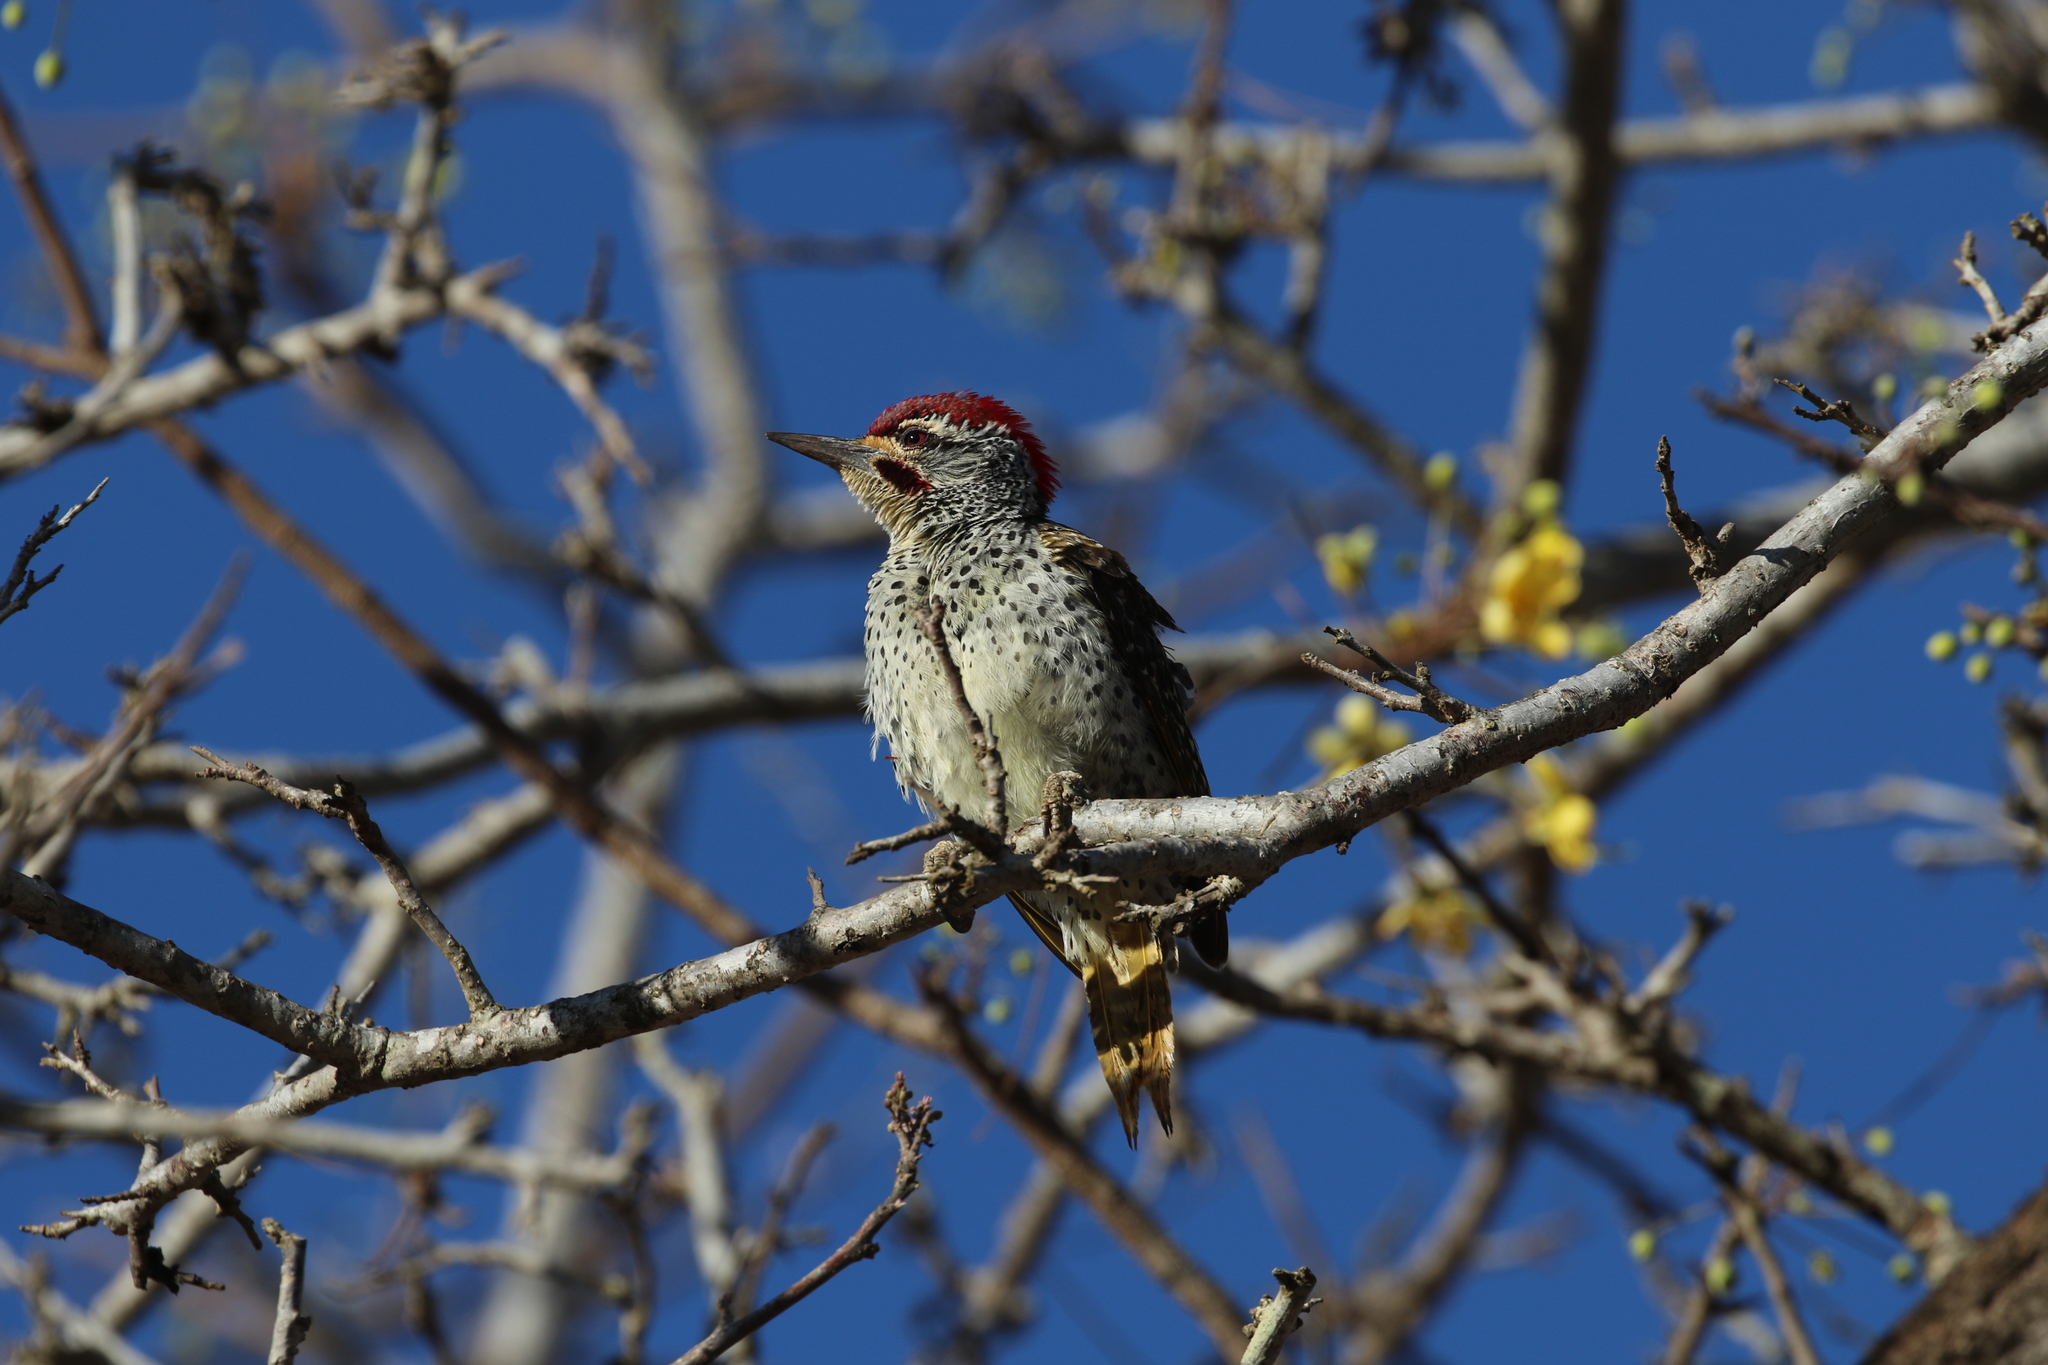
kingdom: Animalia
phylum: Chordata
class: Aves
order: Piciformes
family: Picidae
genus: Campethera
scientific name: Campethera nubica
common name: Nubian woodpecker
